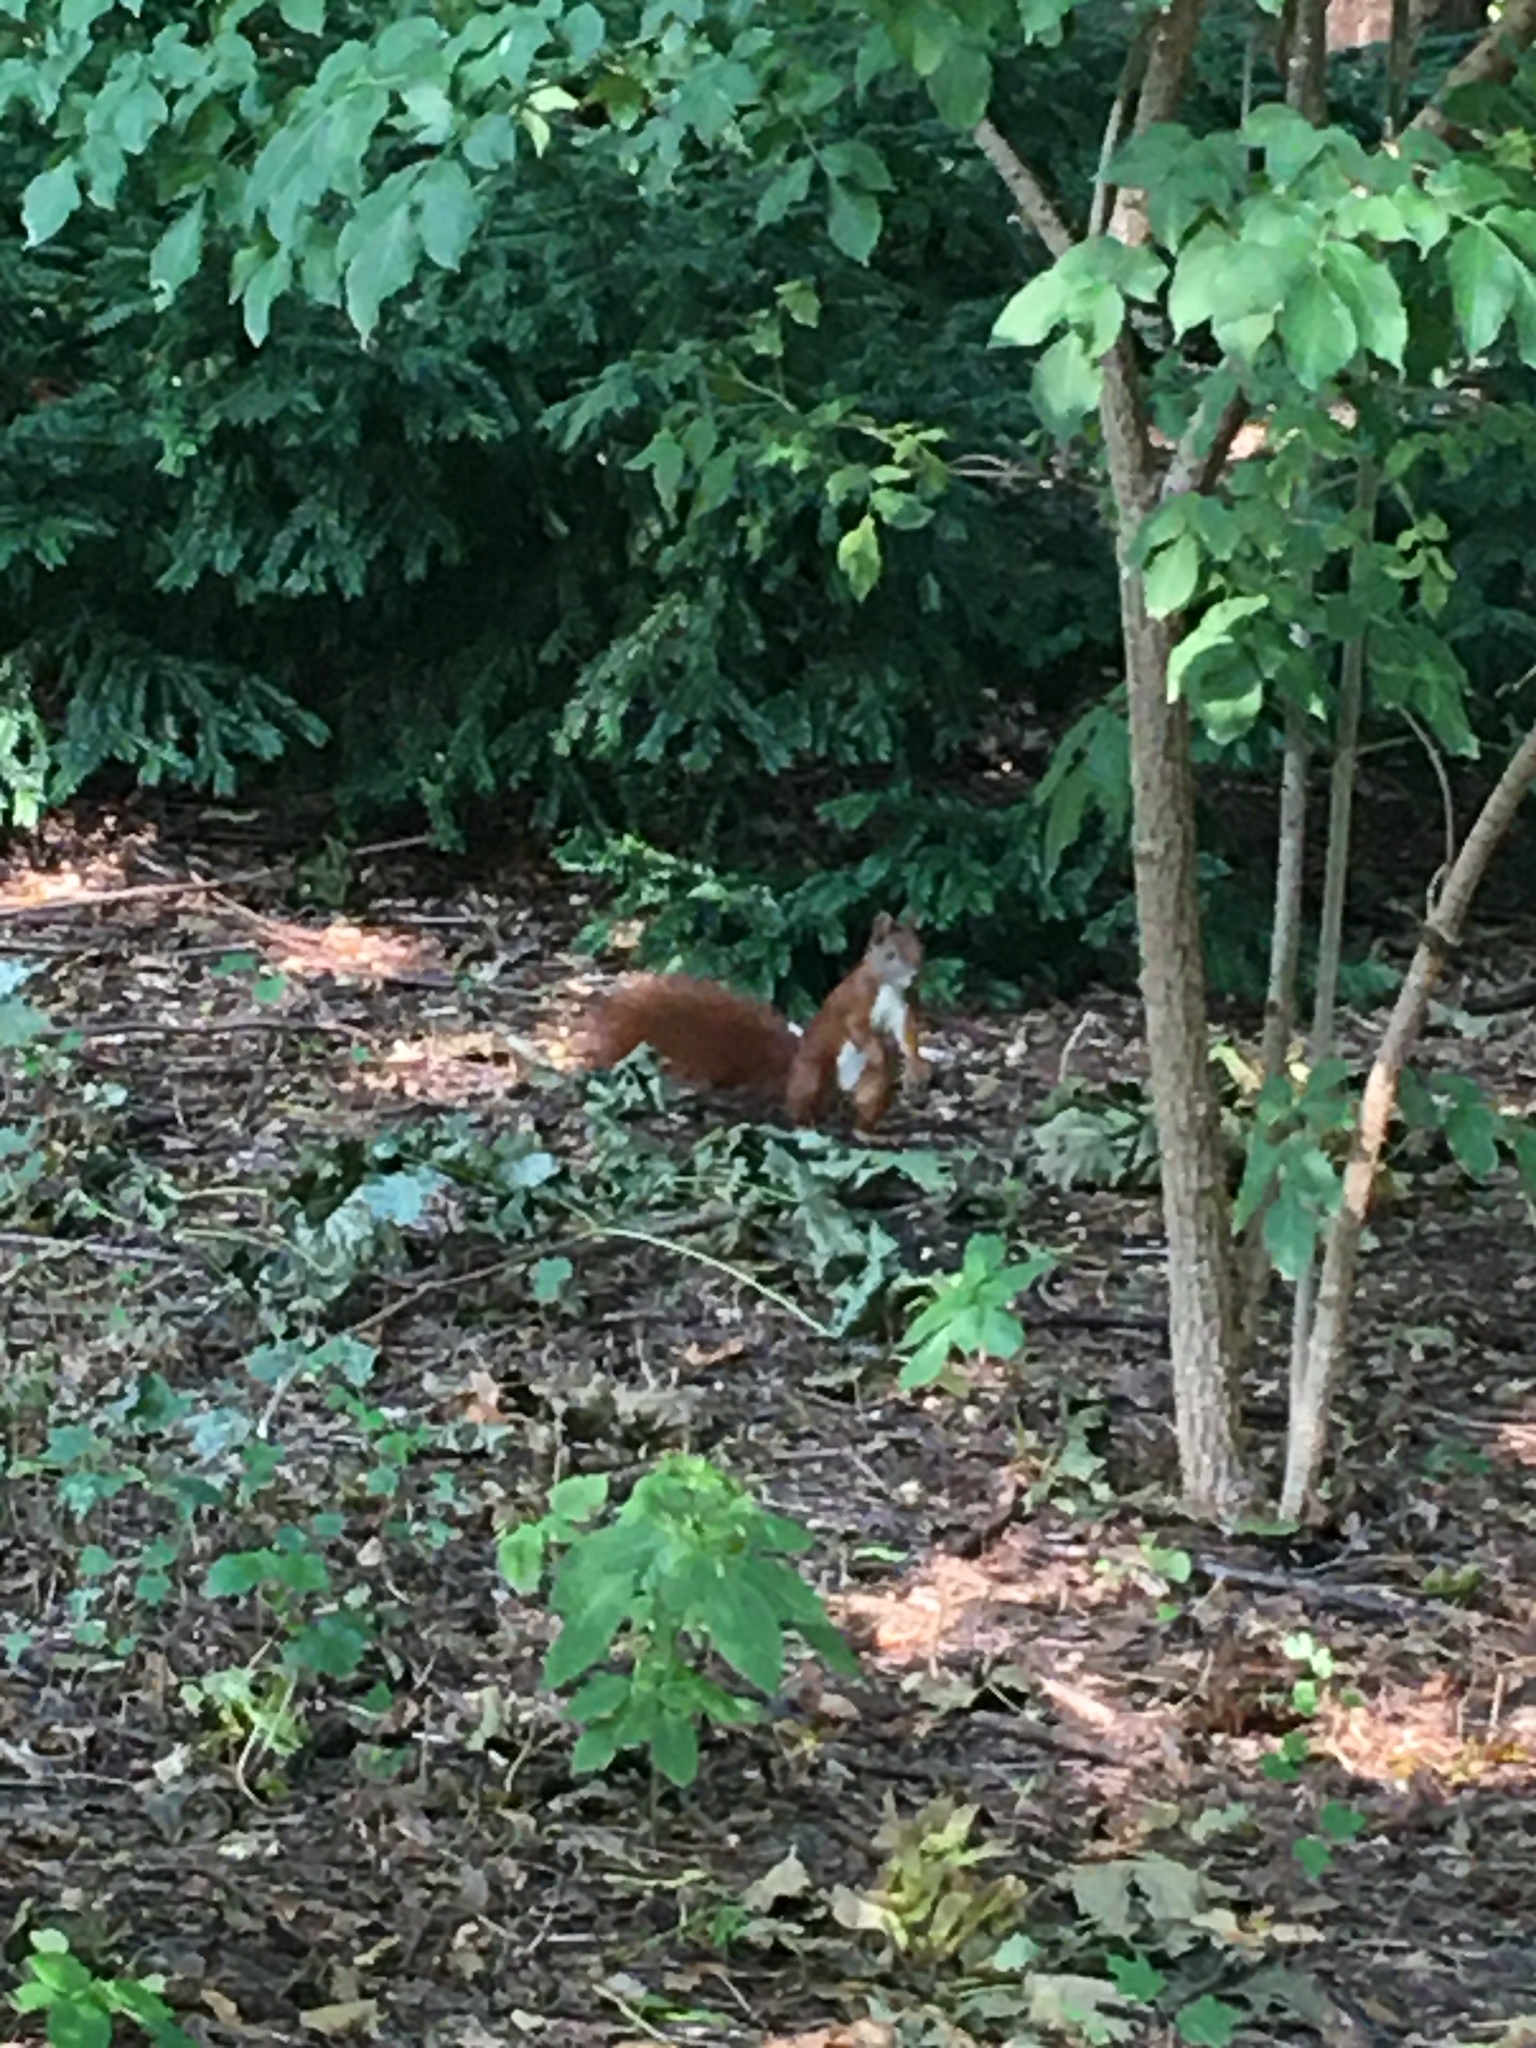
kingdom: Animalia
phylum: Chordata
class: Mammalia
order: Rodentia
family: Sciuridae
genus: Sciurus
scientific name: Sciurus vulgaris
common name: Eurasian red squirrel
